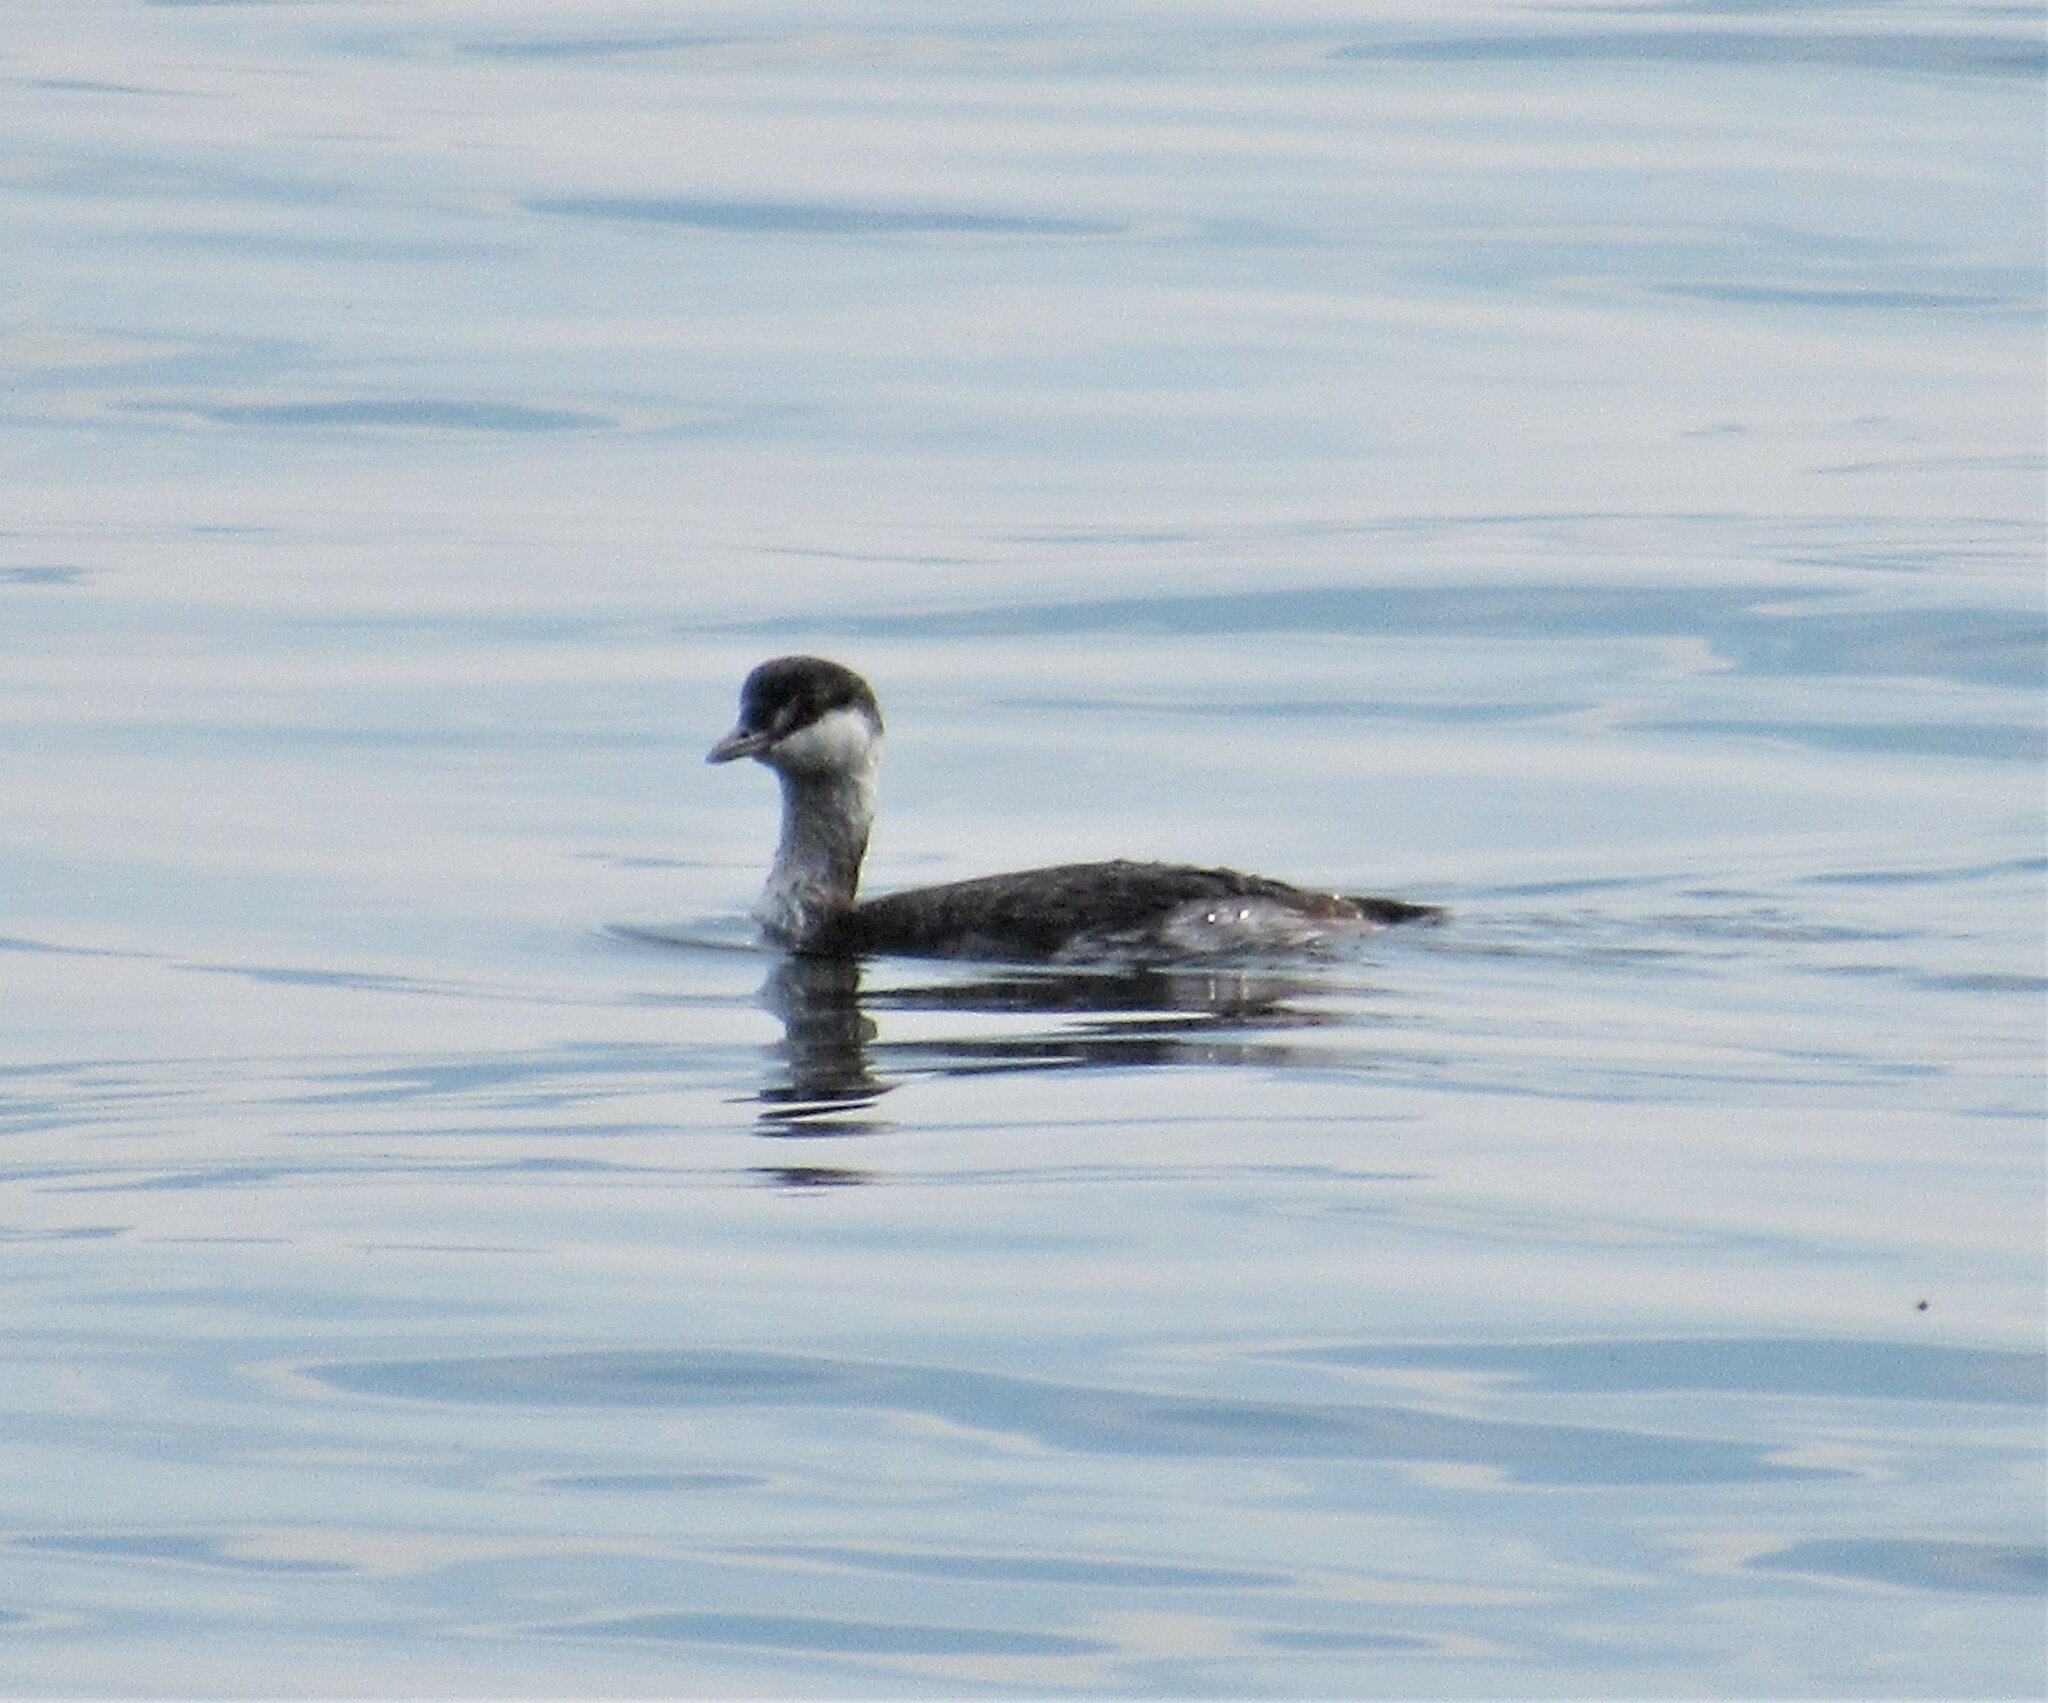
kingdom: Animalia
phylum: Chordata
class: Aves
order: Podicipediformes
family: Podicipedidae
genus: Podiceps
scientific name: Podiceps auritus
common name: Horned grebe
